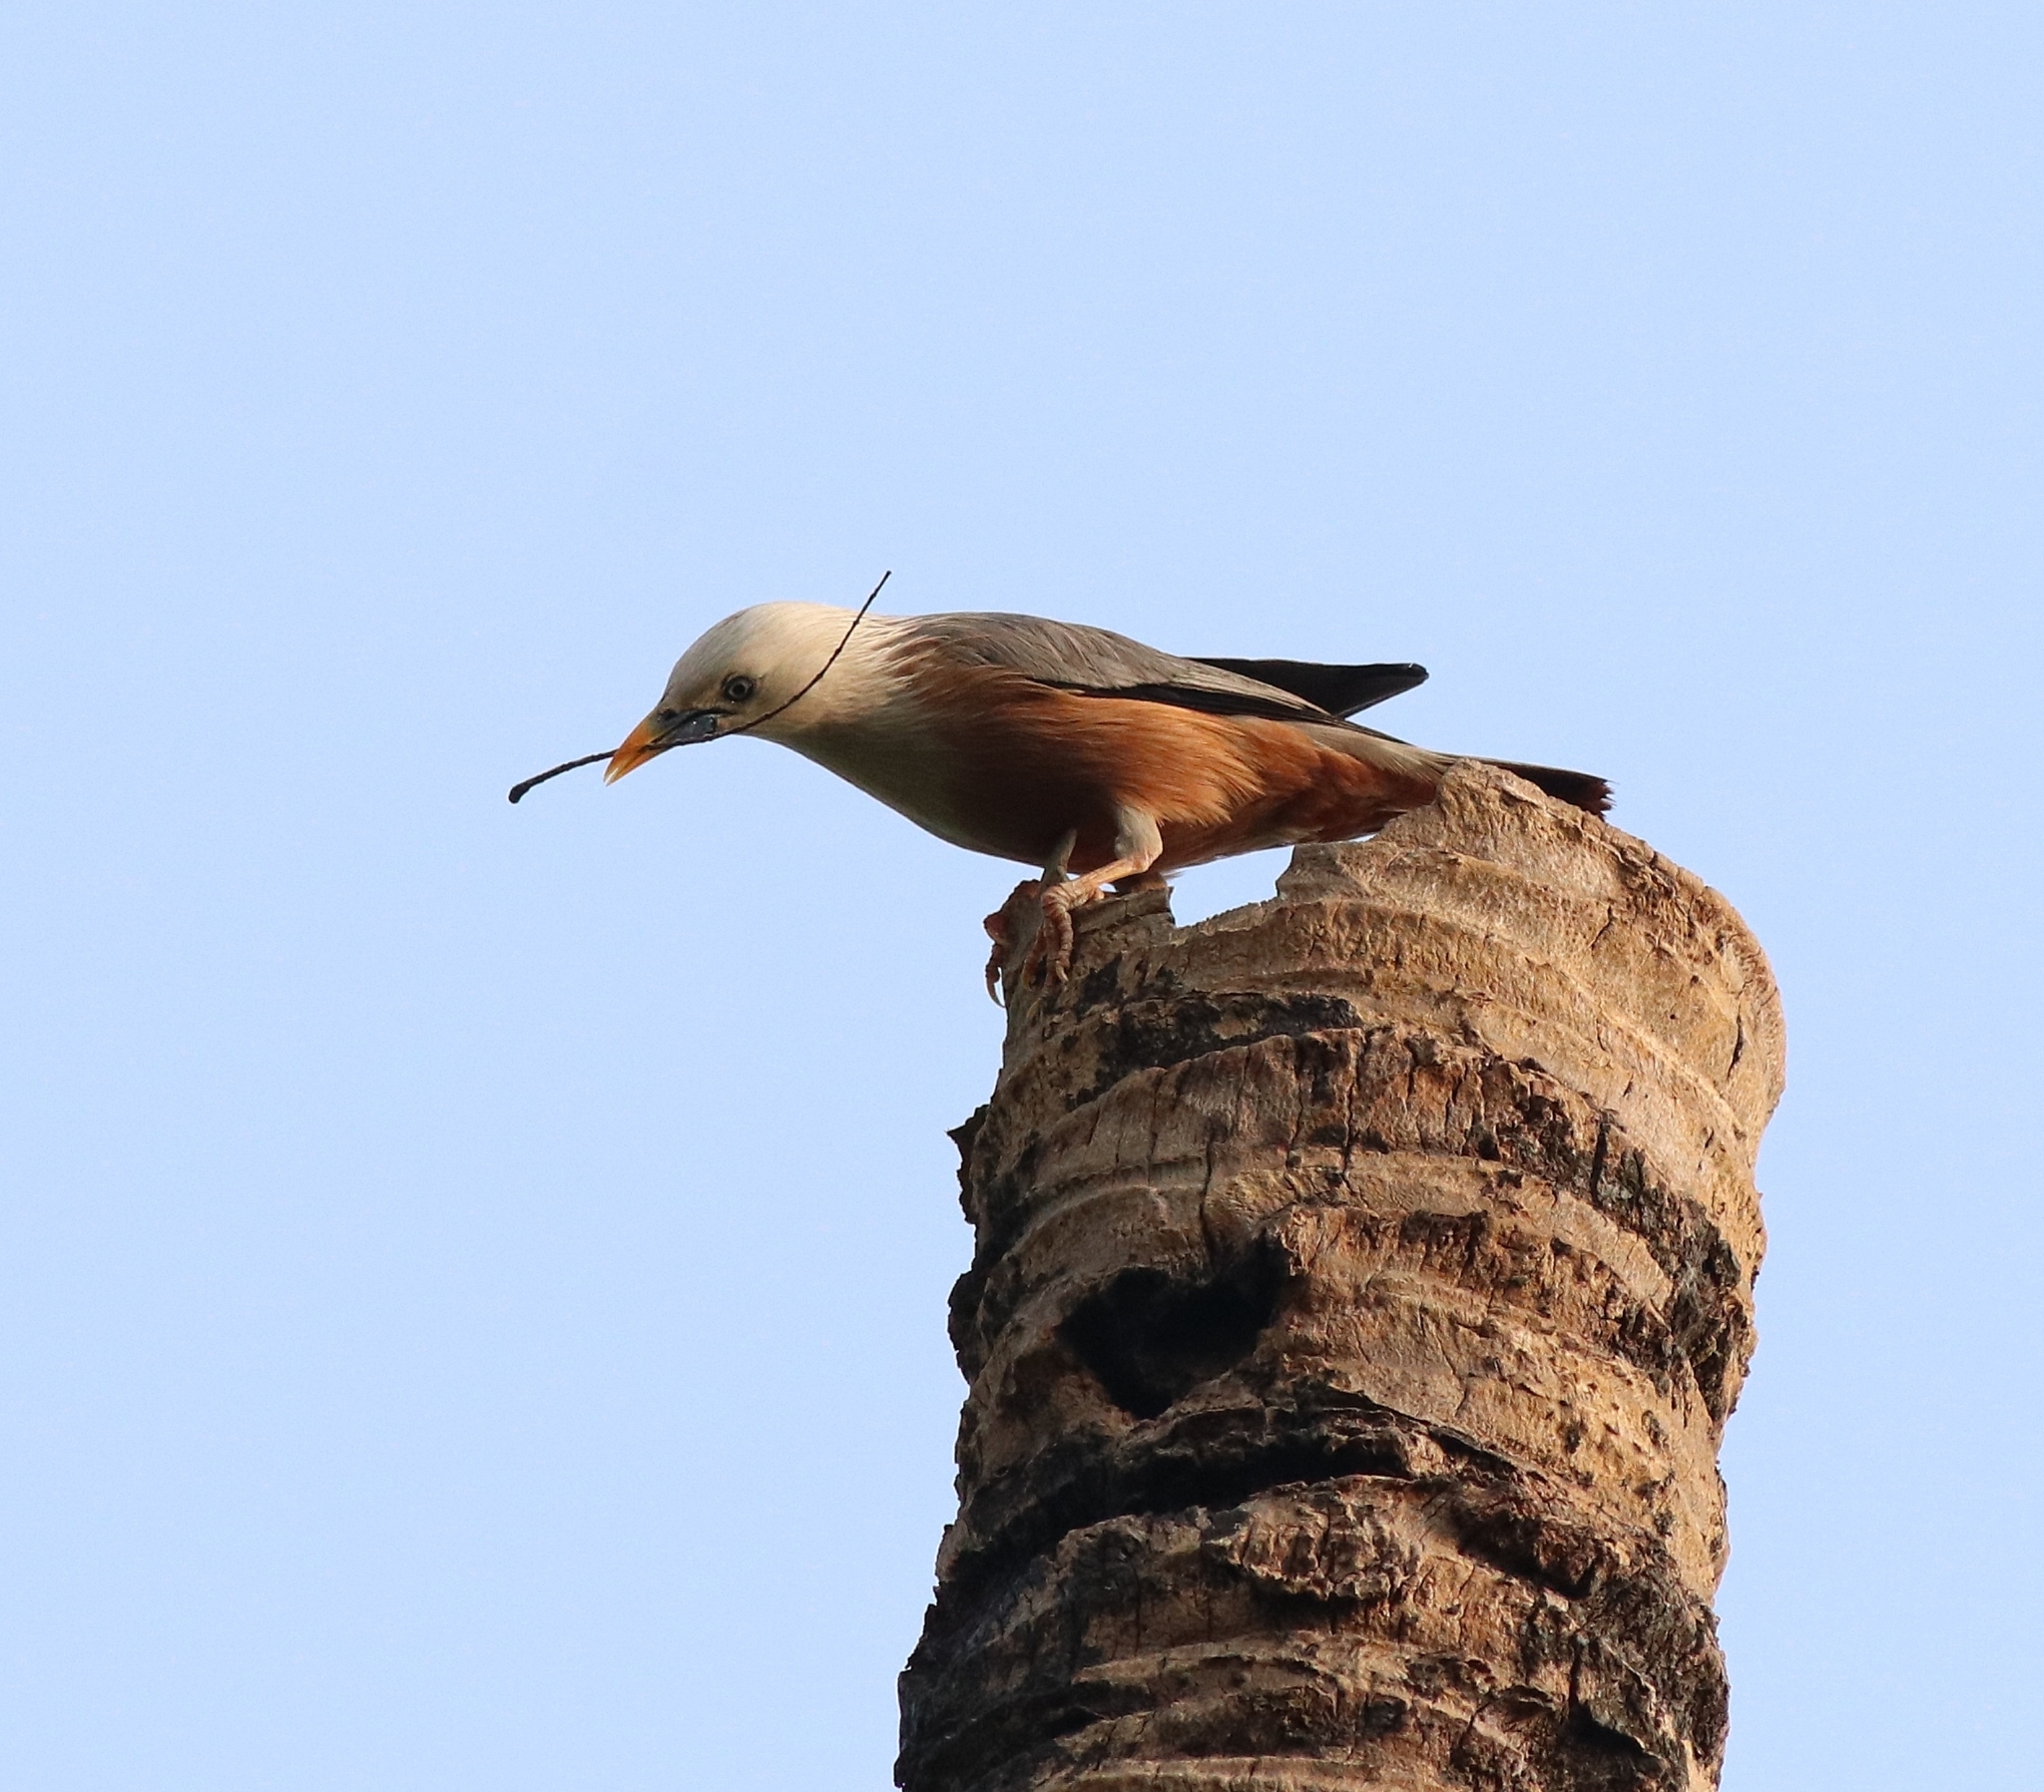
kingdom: Animalia
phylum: Chordata
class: Aves
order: Passeriformes
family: Sturnidae
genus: Sturnia
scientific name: Sturnia blythii
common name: Malabar starling
